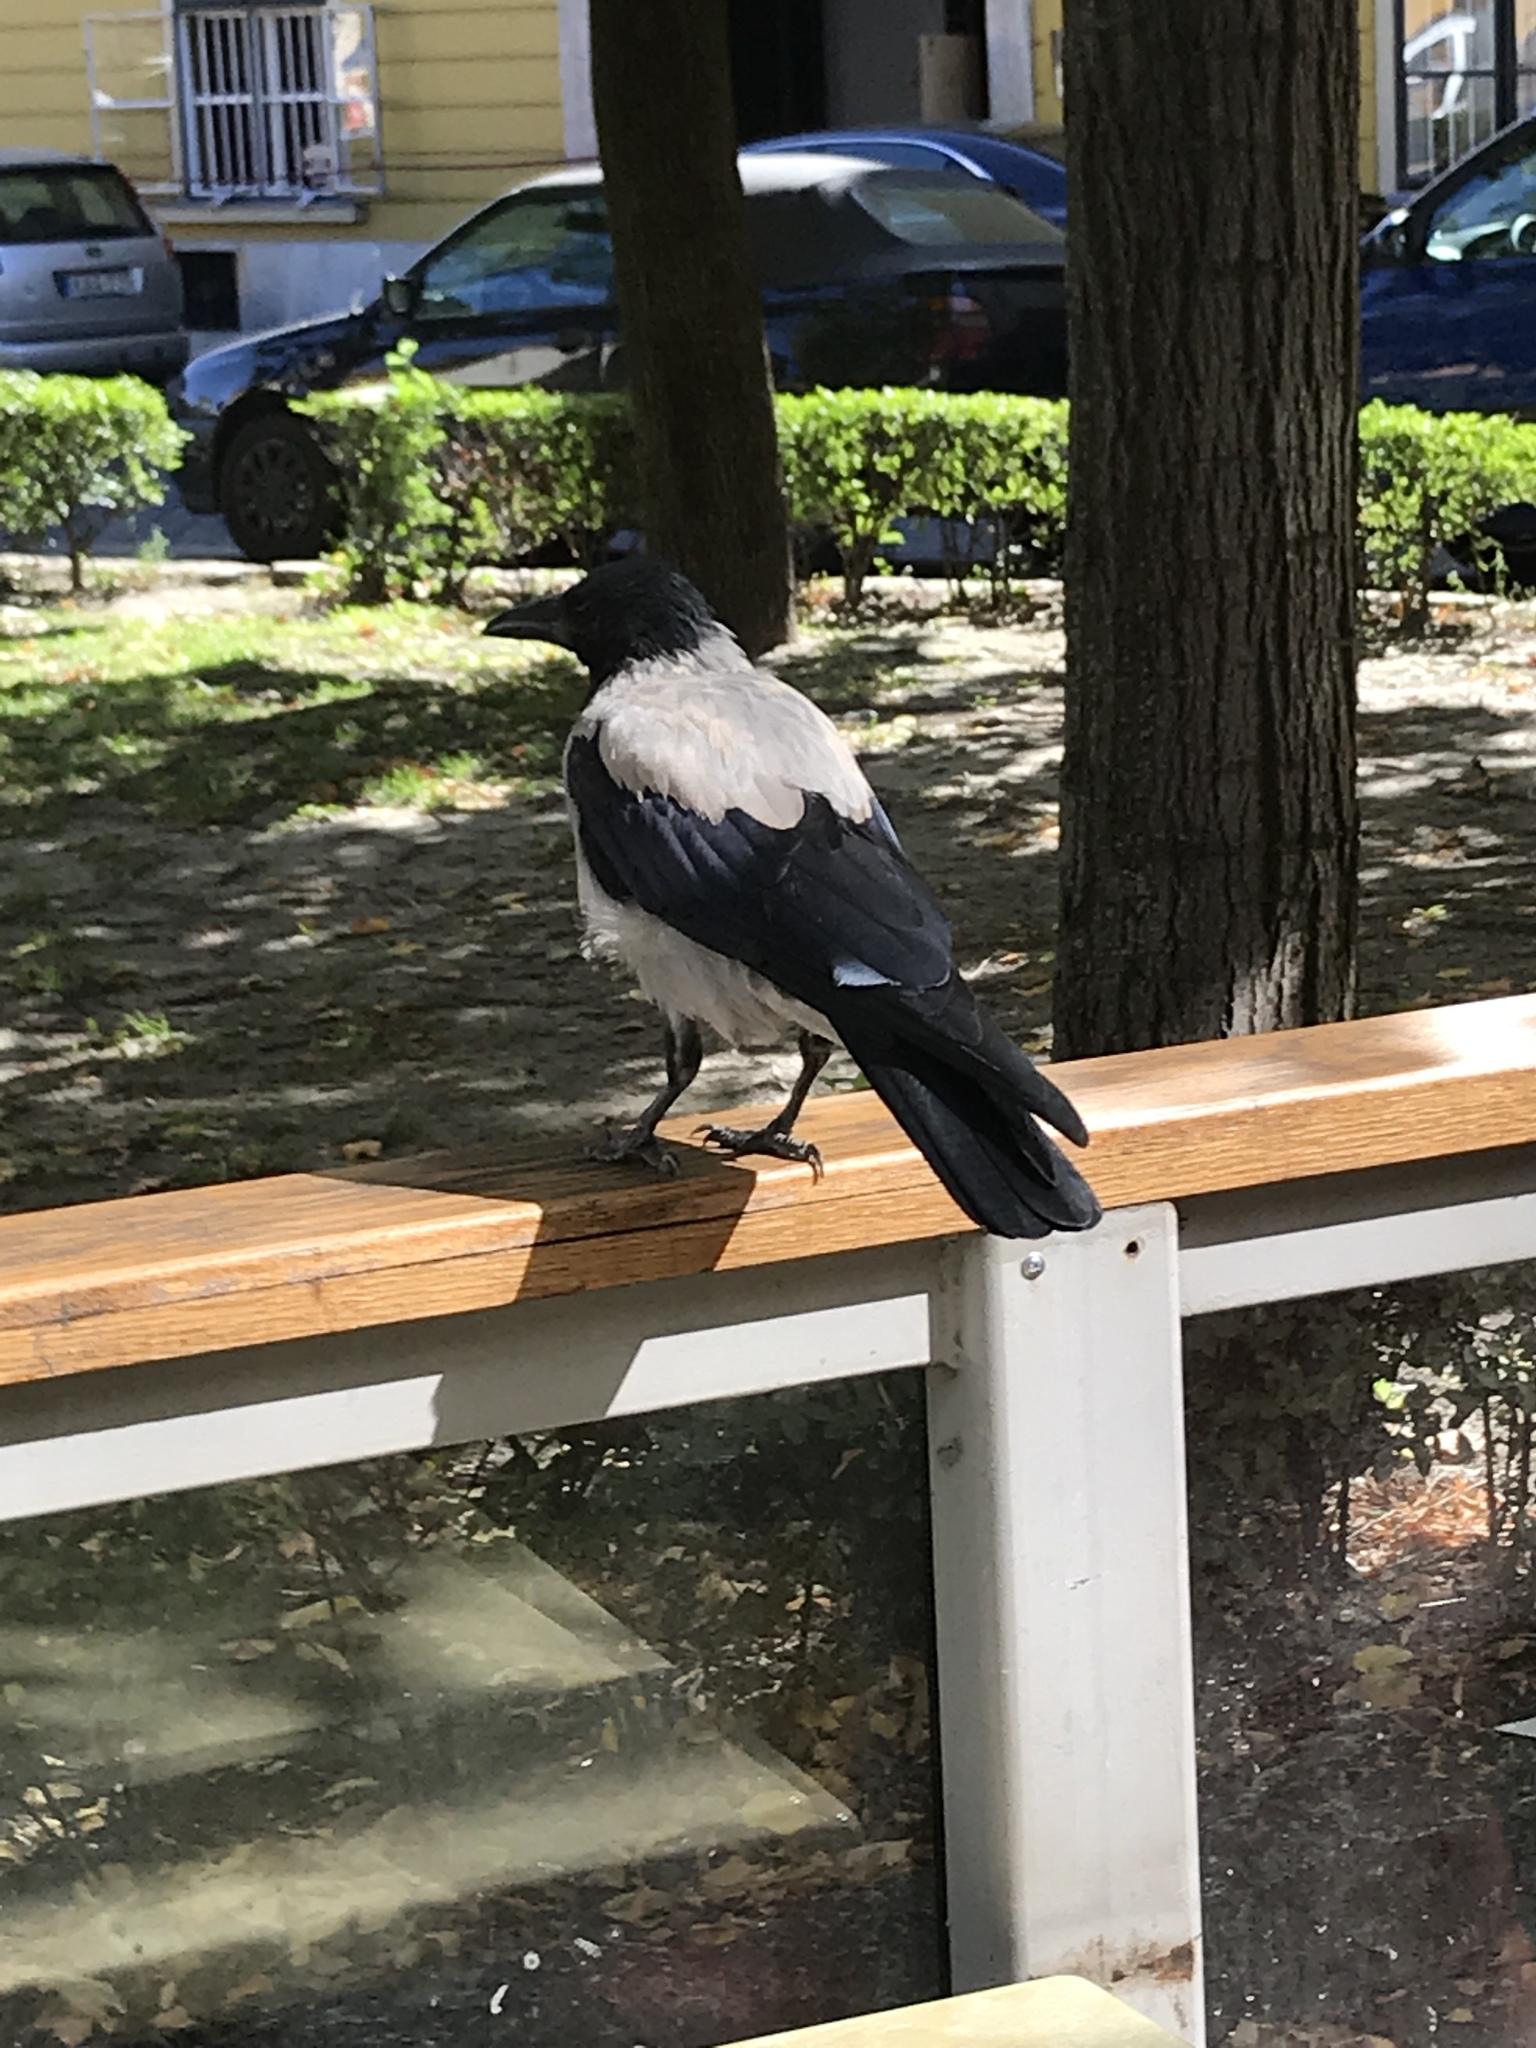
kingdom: Animalia
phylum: Chordata
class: Aves
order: Passeriformes
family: Corvidae
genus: Corvus
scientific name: Corvus cornix
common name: Hooded crow
